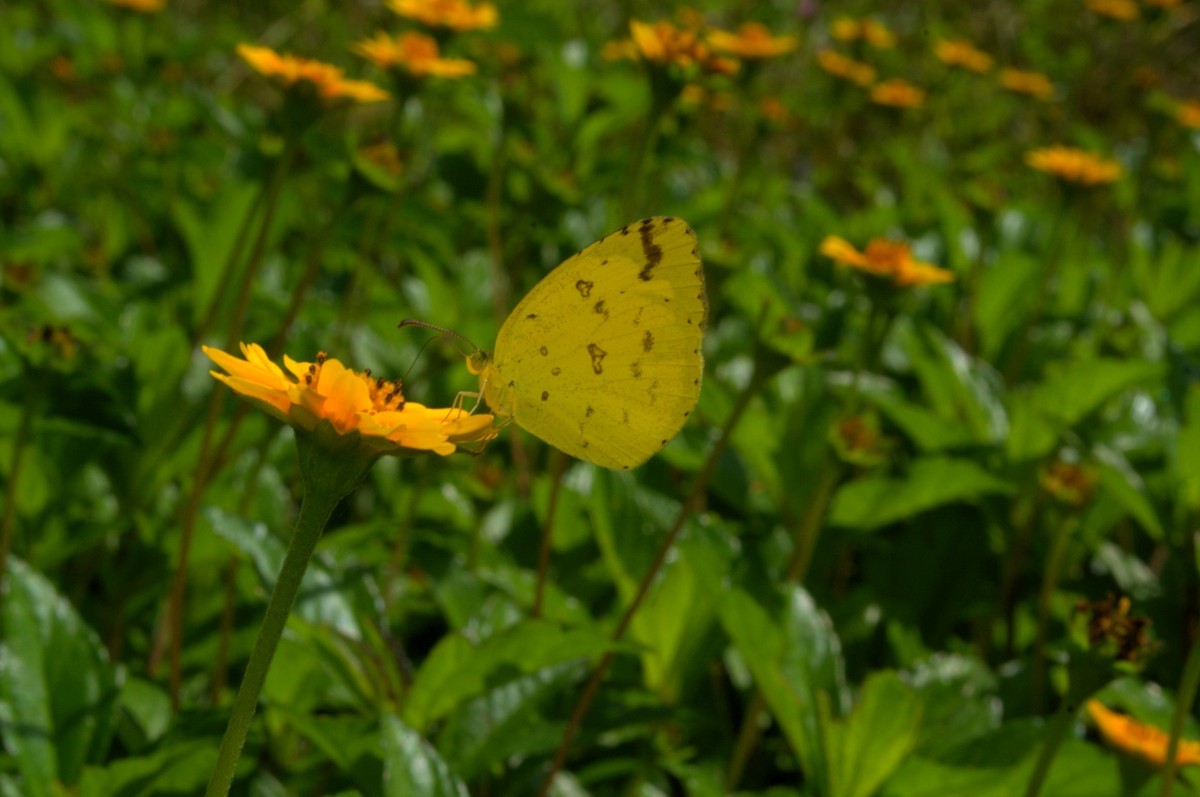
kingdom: Animalia
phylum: Arthropoda
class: Insecta
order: Lepidoptera
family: Pieridae
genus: Eurema
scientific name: Eurema hecabe
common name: Pale grass yellow
